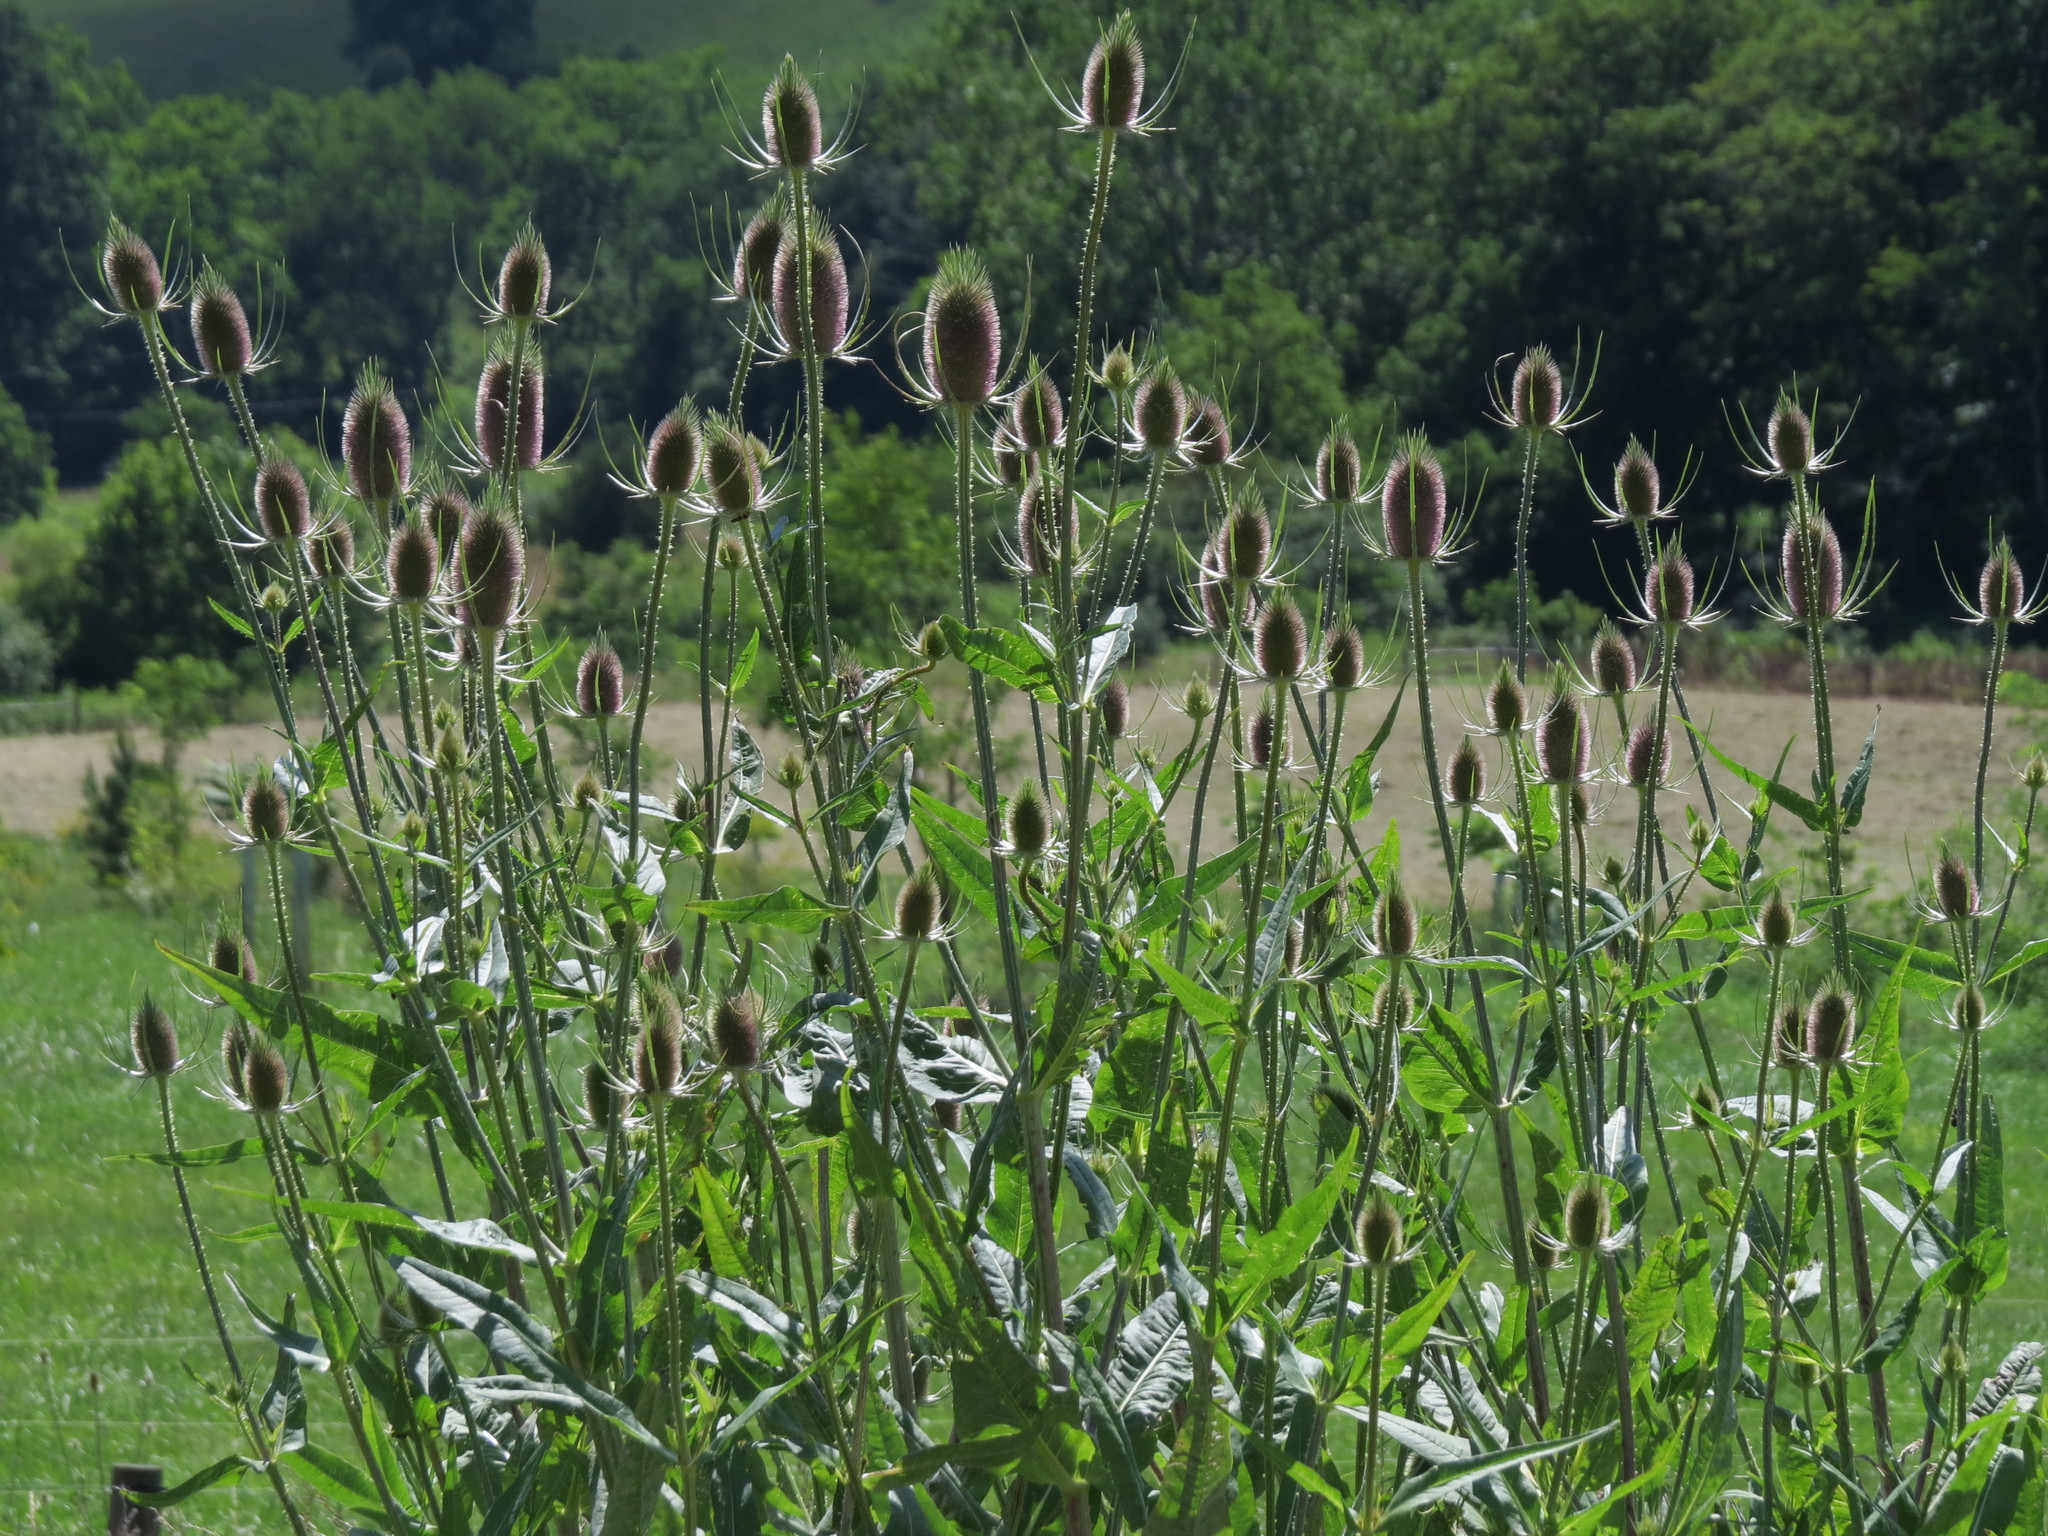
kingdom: Plantae
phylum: Tracheophyta
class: Magnoliopsida
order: Dipsacales
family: Caprifoliaceae
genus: Dipsacus
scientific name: Dipsacus fullonum
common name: Teasel
